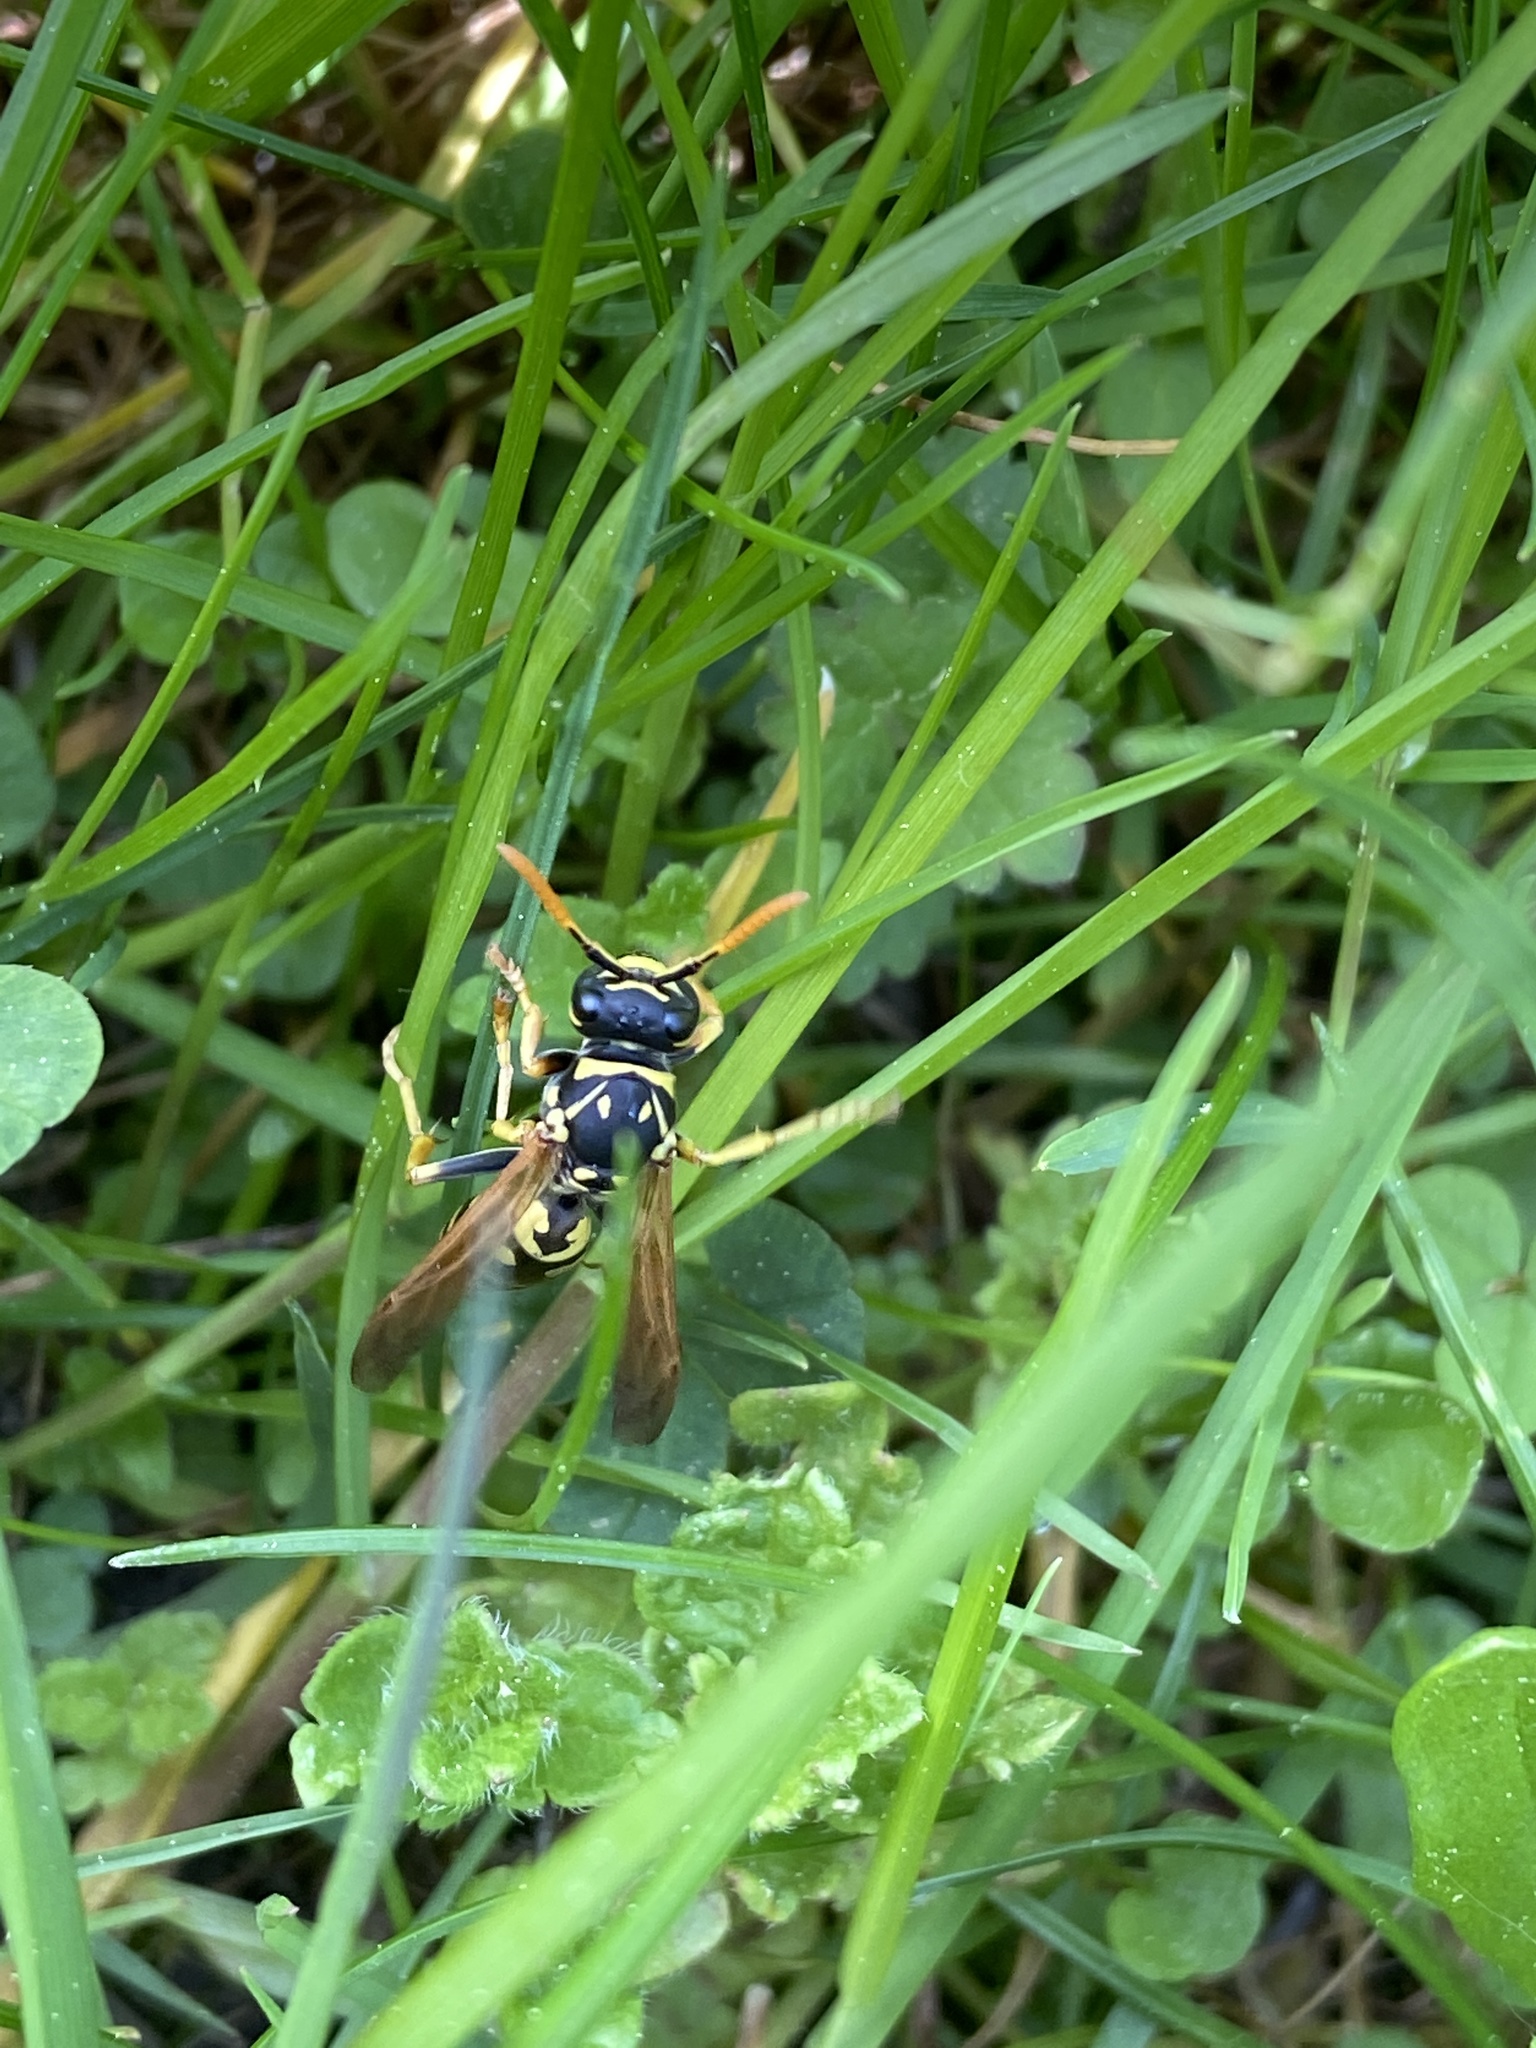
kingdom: Animalia
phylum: Arthropoda
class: Insecta
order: Hymenoptera
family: Eumenidae
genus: Polistes
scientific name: Polistes dominula
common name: Paper wasp
